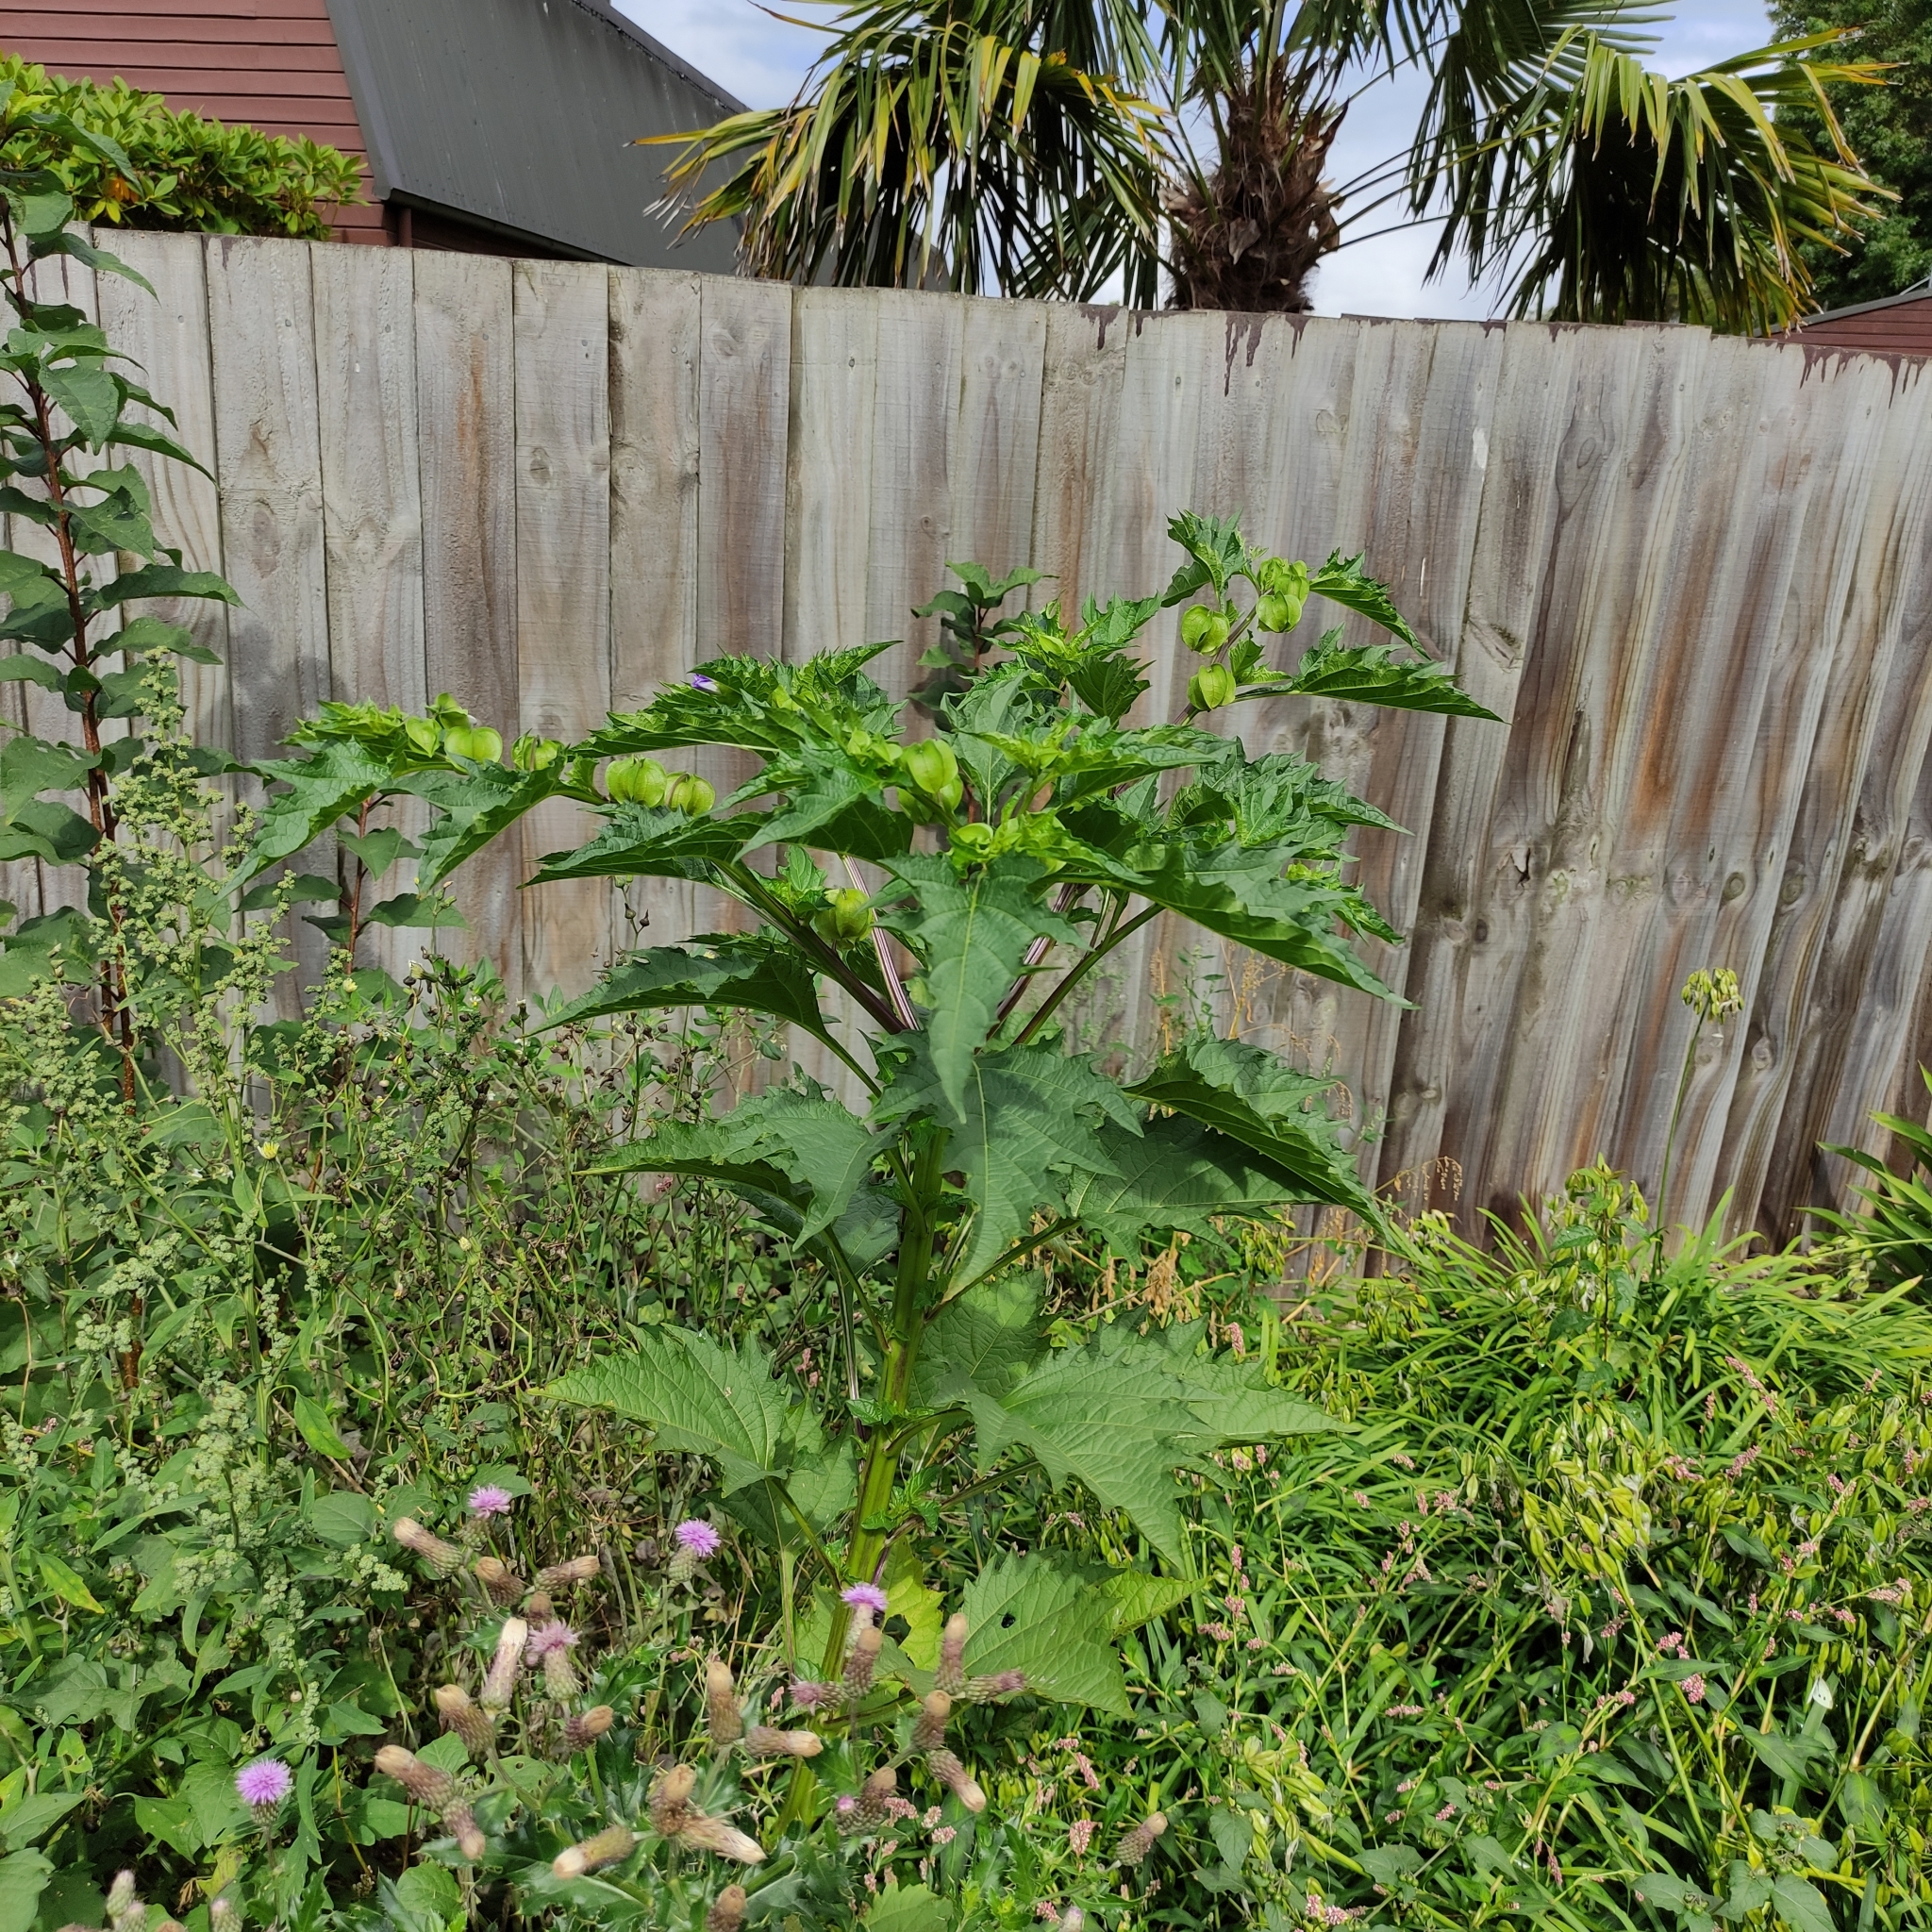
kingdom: Plantae
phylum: Tracheophyta
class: Magnoliopsida
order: Solanales
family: Solanaceae
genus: Nicandra
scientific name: Nicandra physalodes
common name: Apple-of-peru
